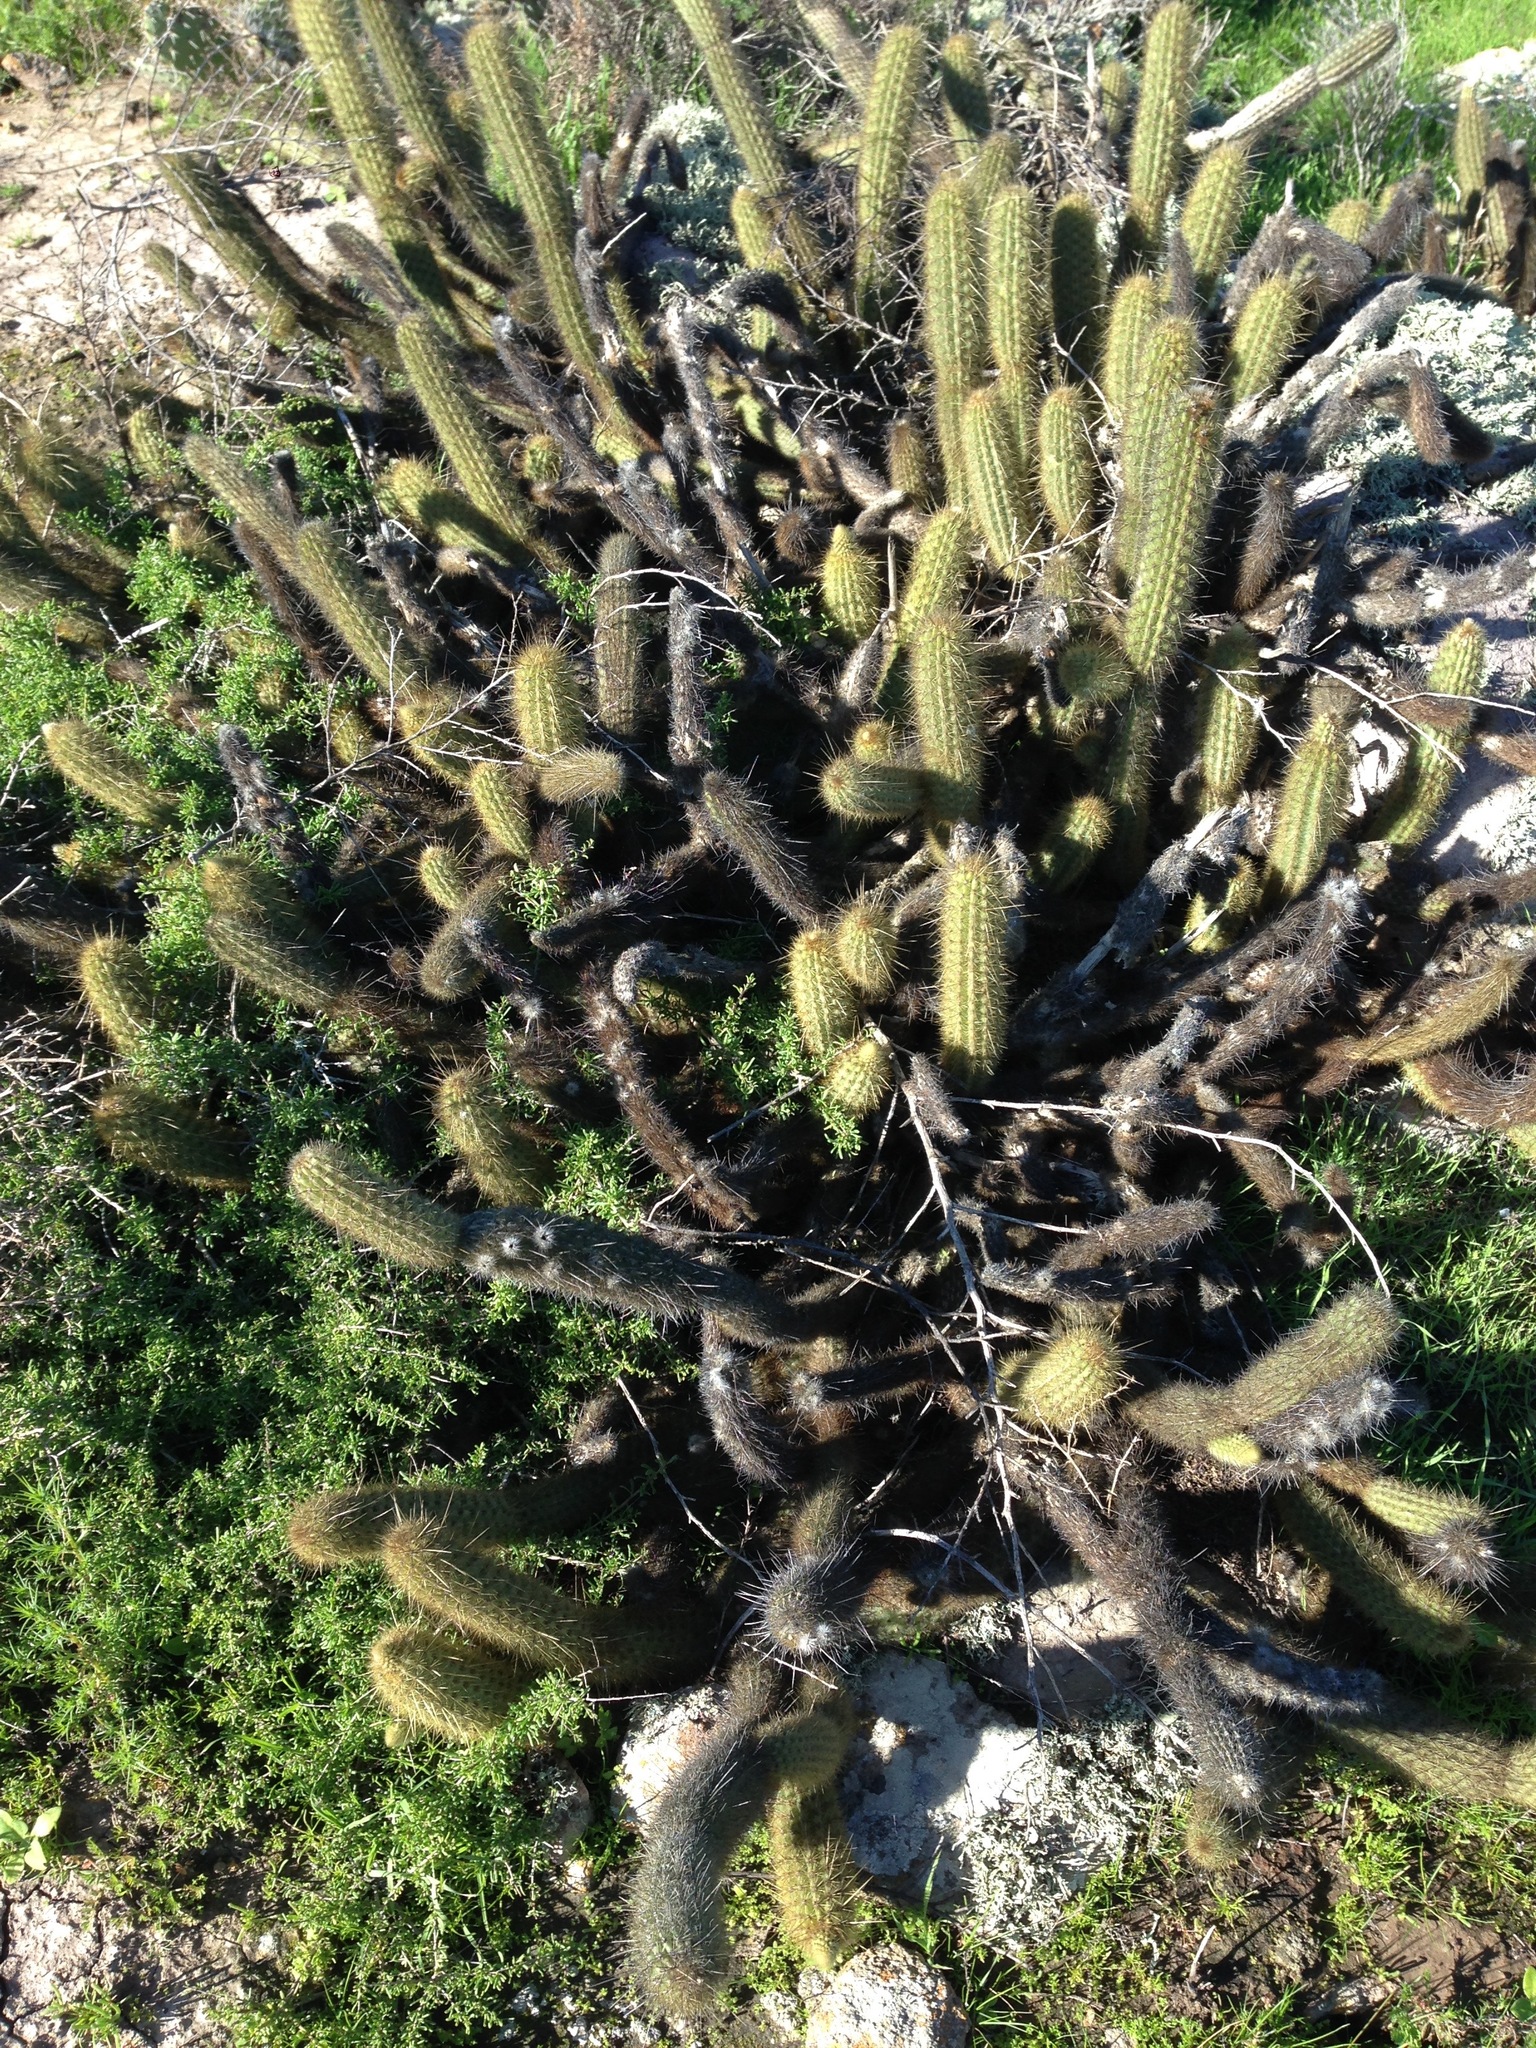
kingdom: Plantae
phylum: Tracheophyta
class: Magnoliopsida
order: Caryophyllales
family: Cactaceae
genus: Bergerocactus
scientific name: Bergerocactus emoryi
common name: Golden snakecactus
